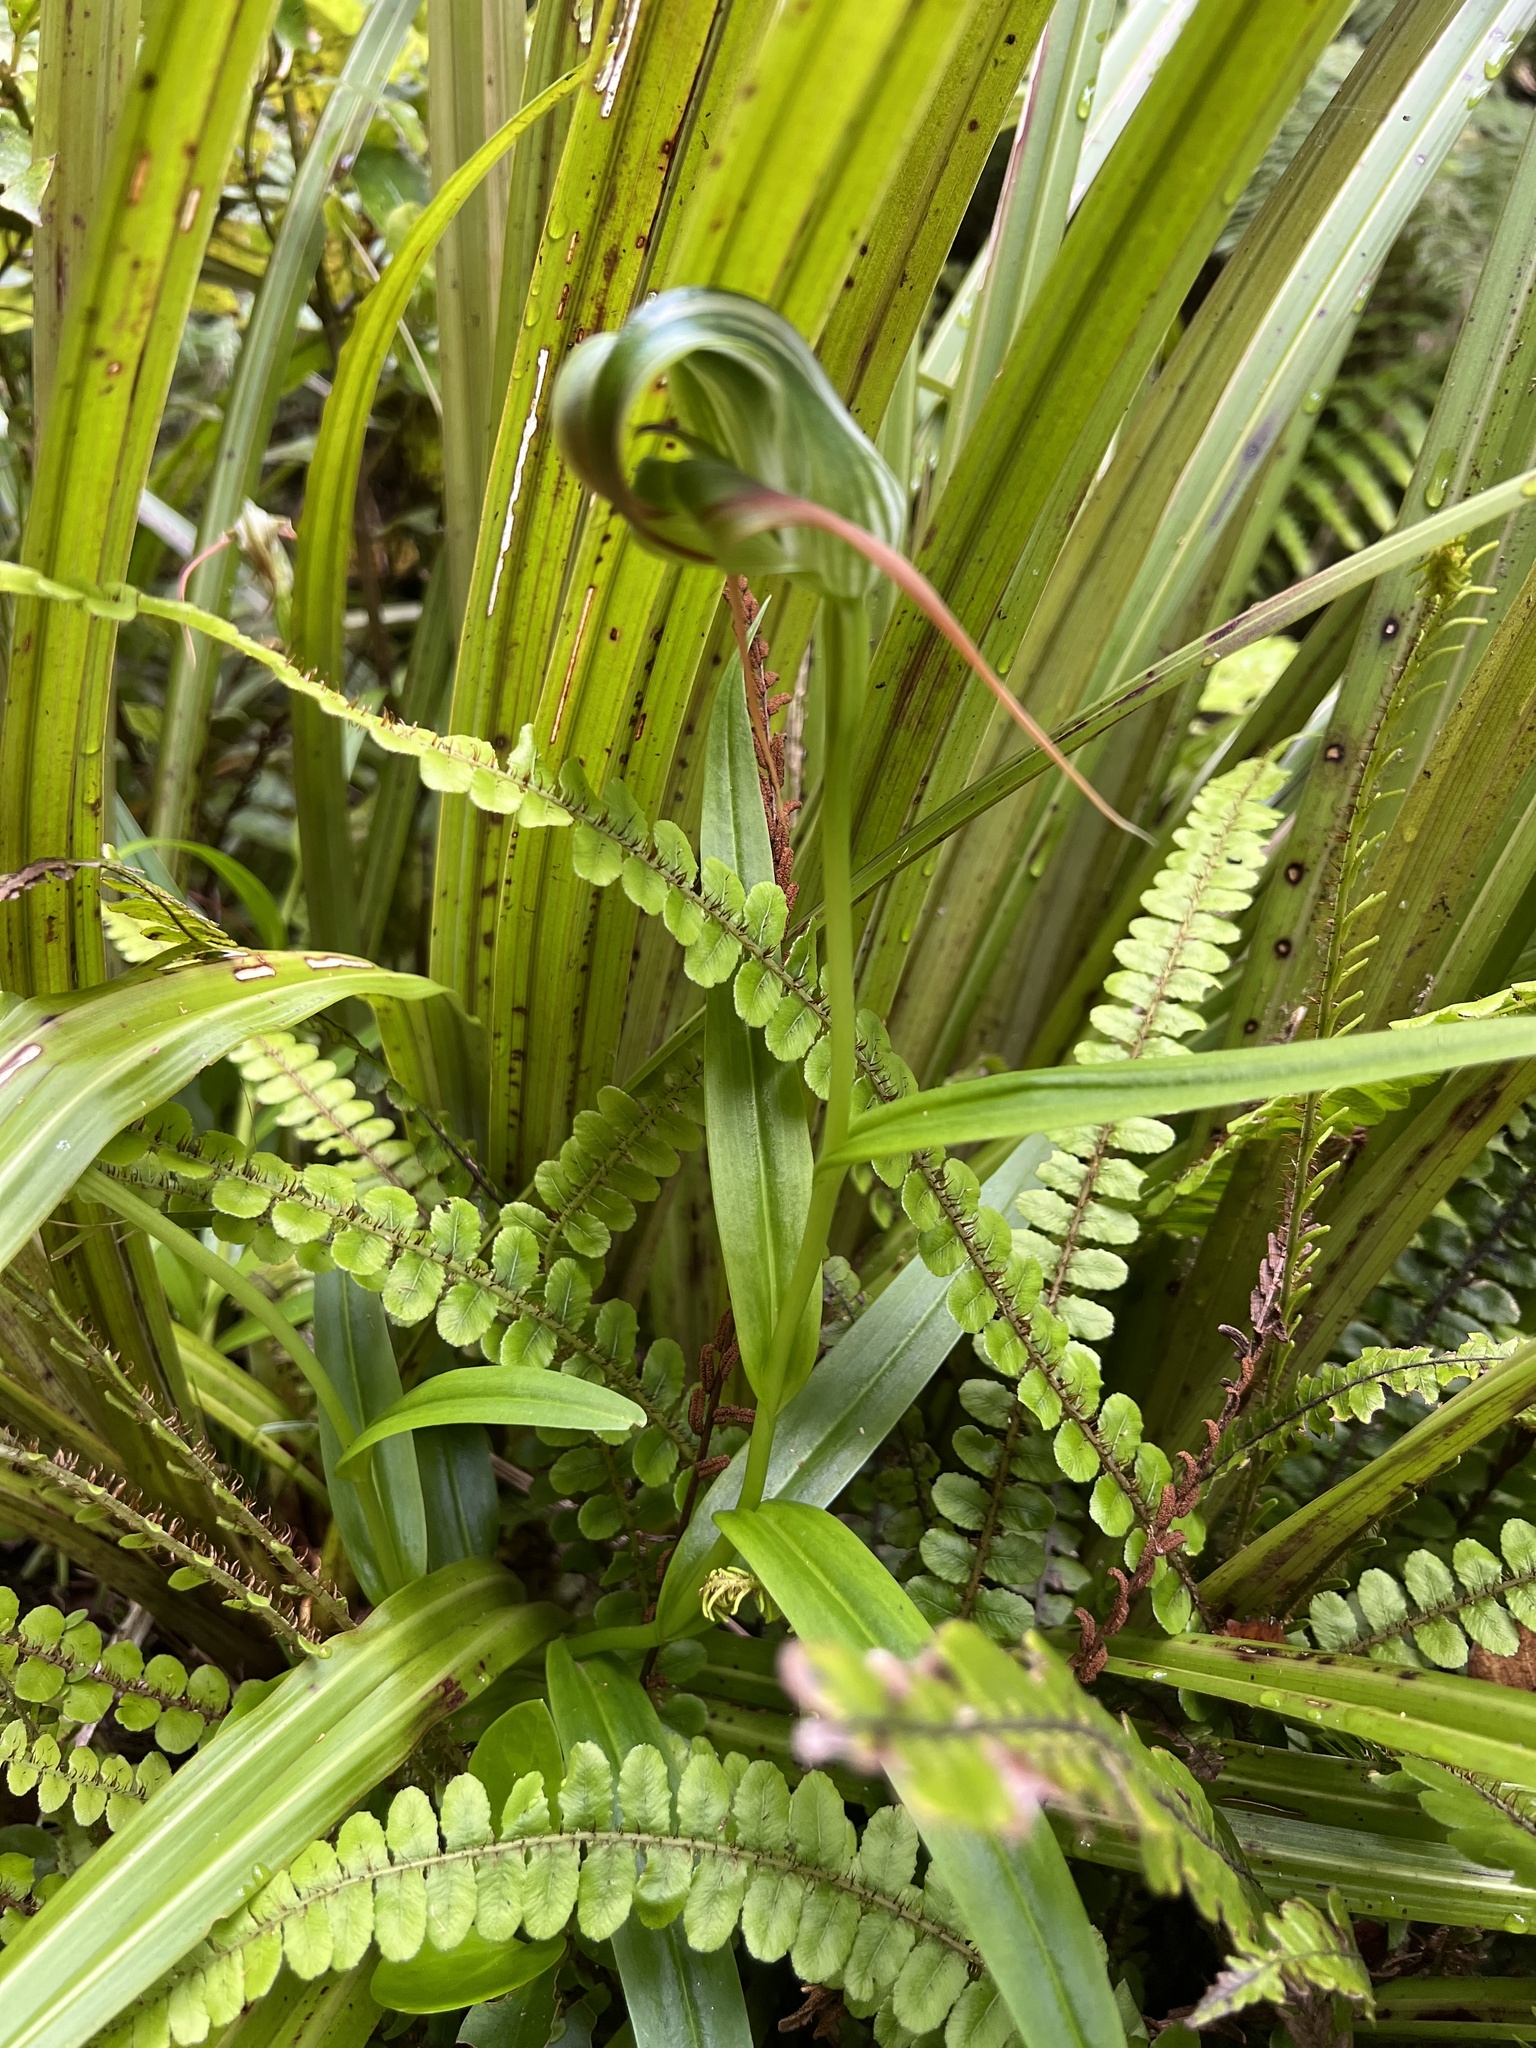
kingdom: Plantae
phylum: Tracheophyta
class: Liliopsida
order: Asparagales
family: Orchidaceae
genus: Pterostylis
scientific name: Pterostylis patens
